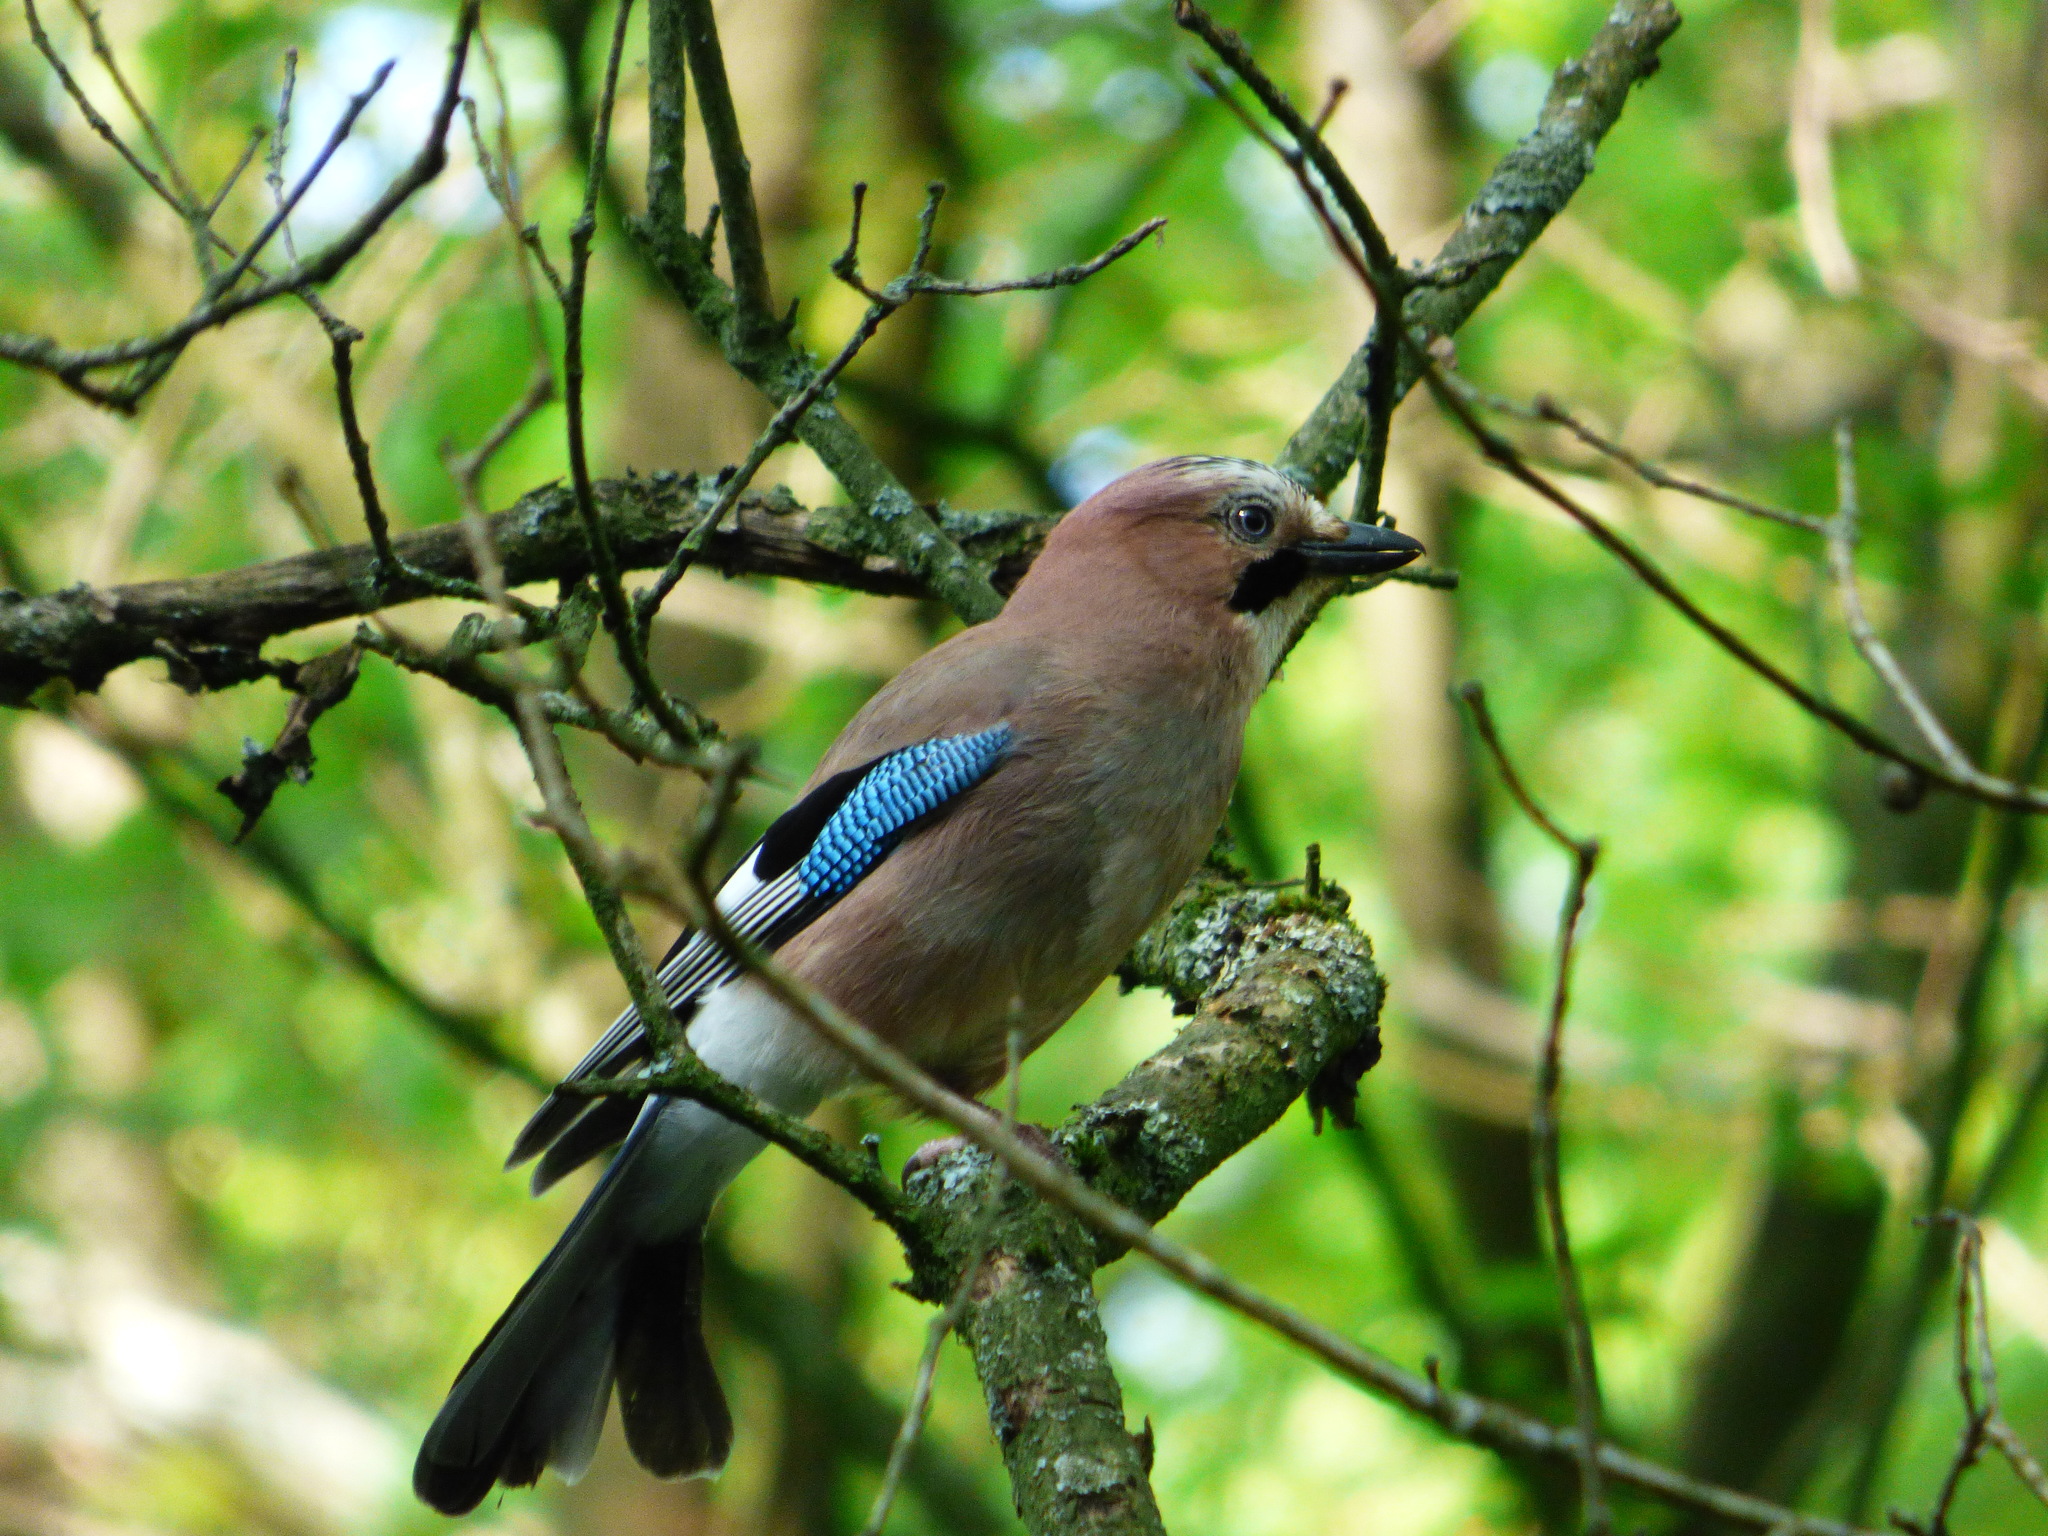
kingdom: Animalia
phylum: Chordata
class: Aves
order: Passeriformes
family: Corvidae
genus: Garrulus
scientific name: Garrulus glandarius
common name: Eurasian jay
